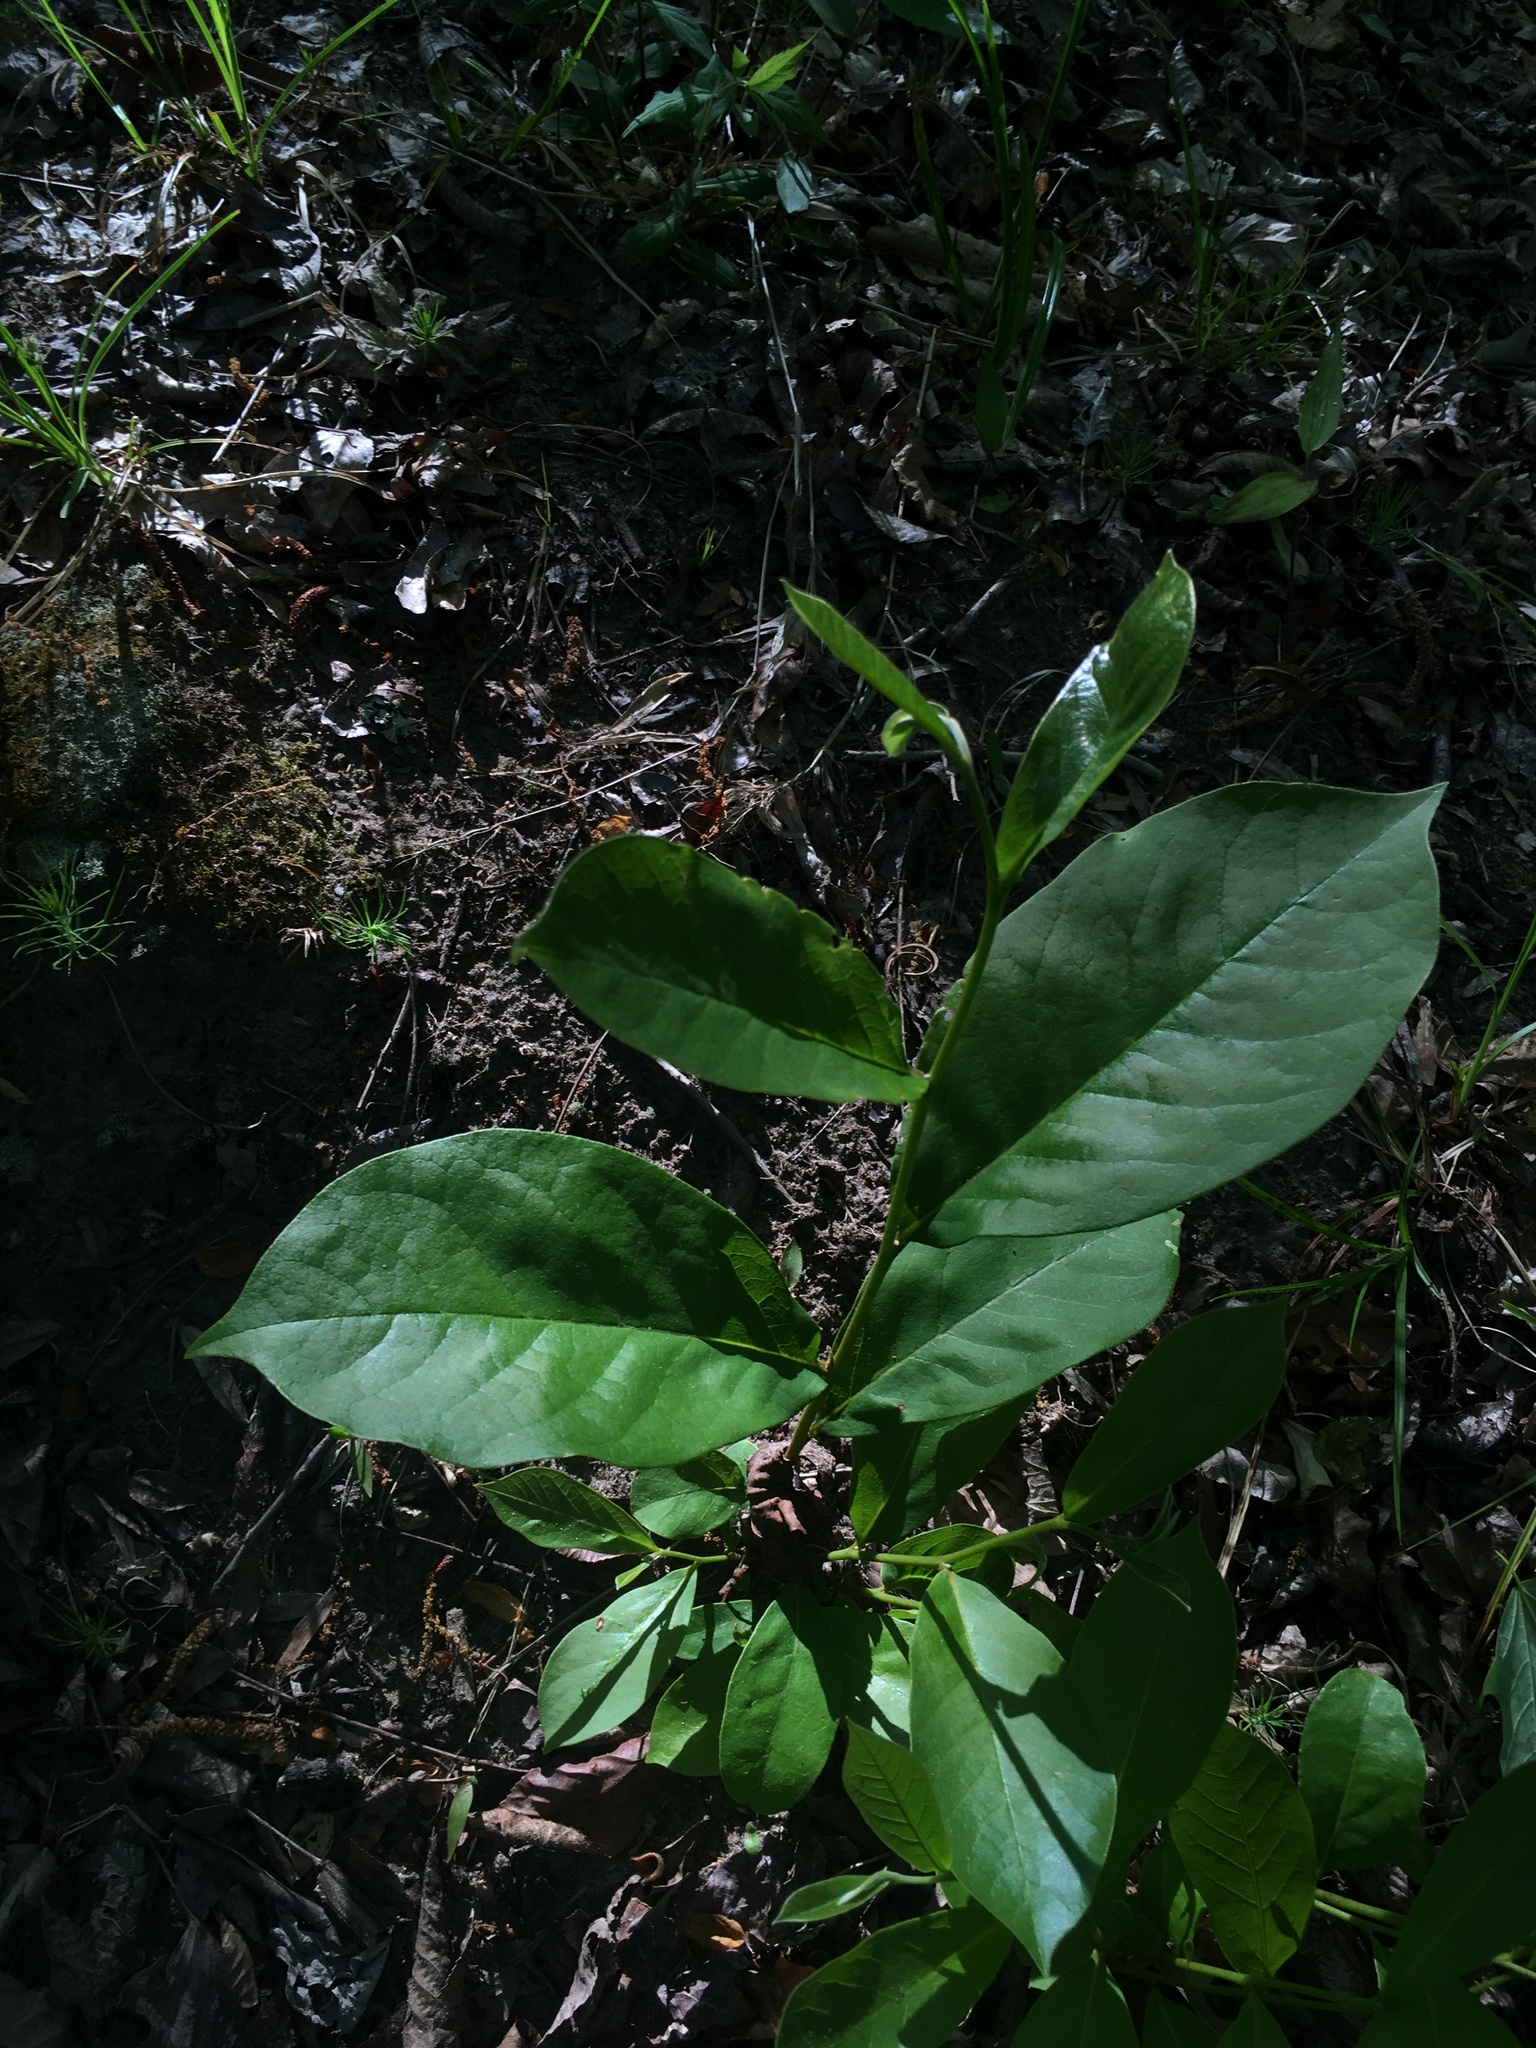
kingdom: Plantae
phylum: Tracheophyta
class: Magnoliopsida
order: Magnoliales
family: Annonaceae
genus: Asimina
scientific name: Asimina parviflora
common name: Dwarf pawpaw
